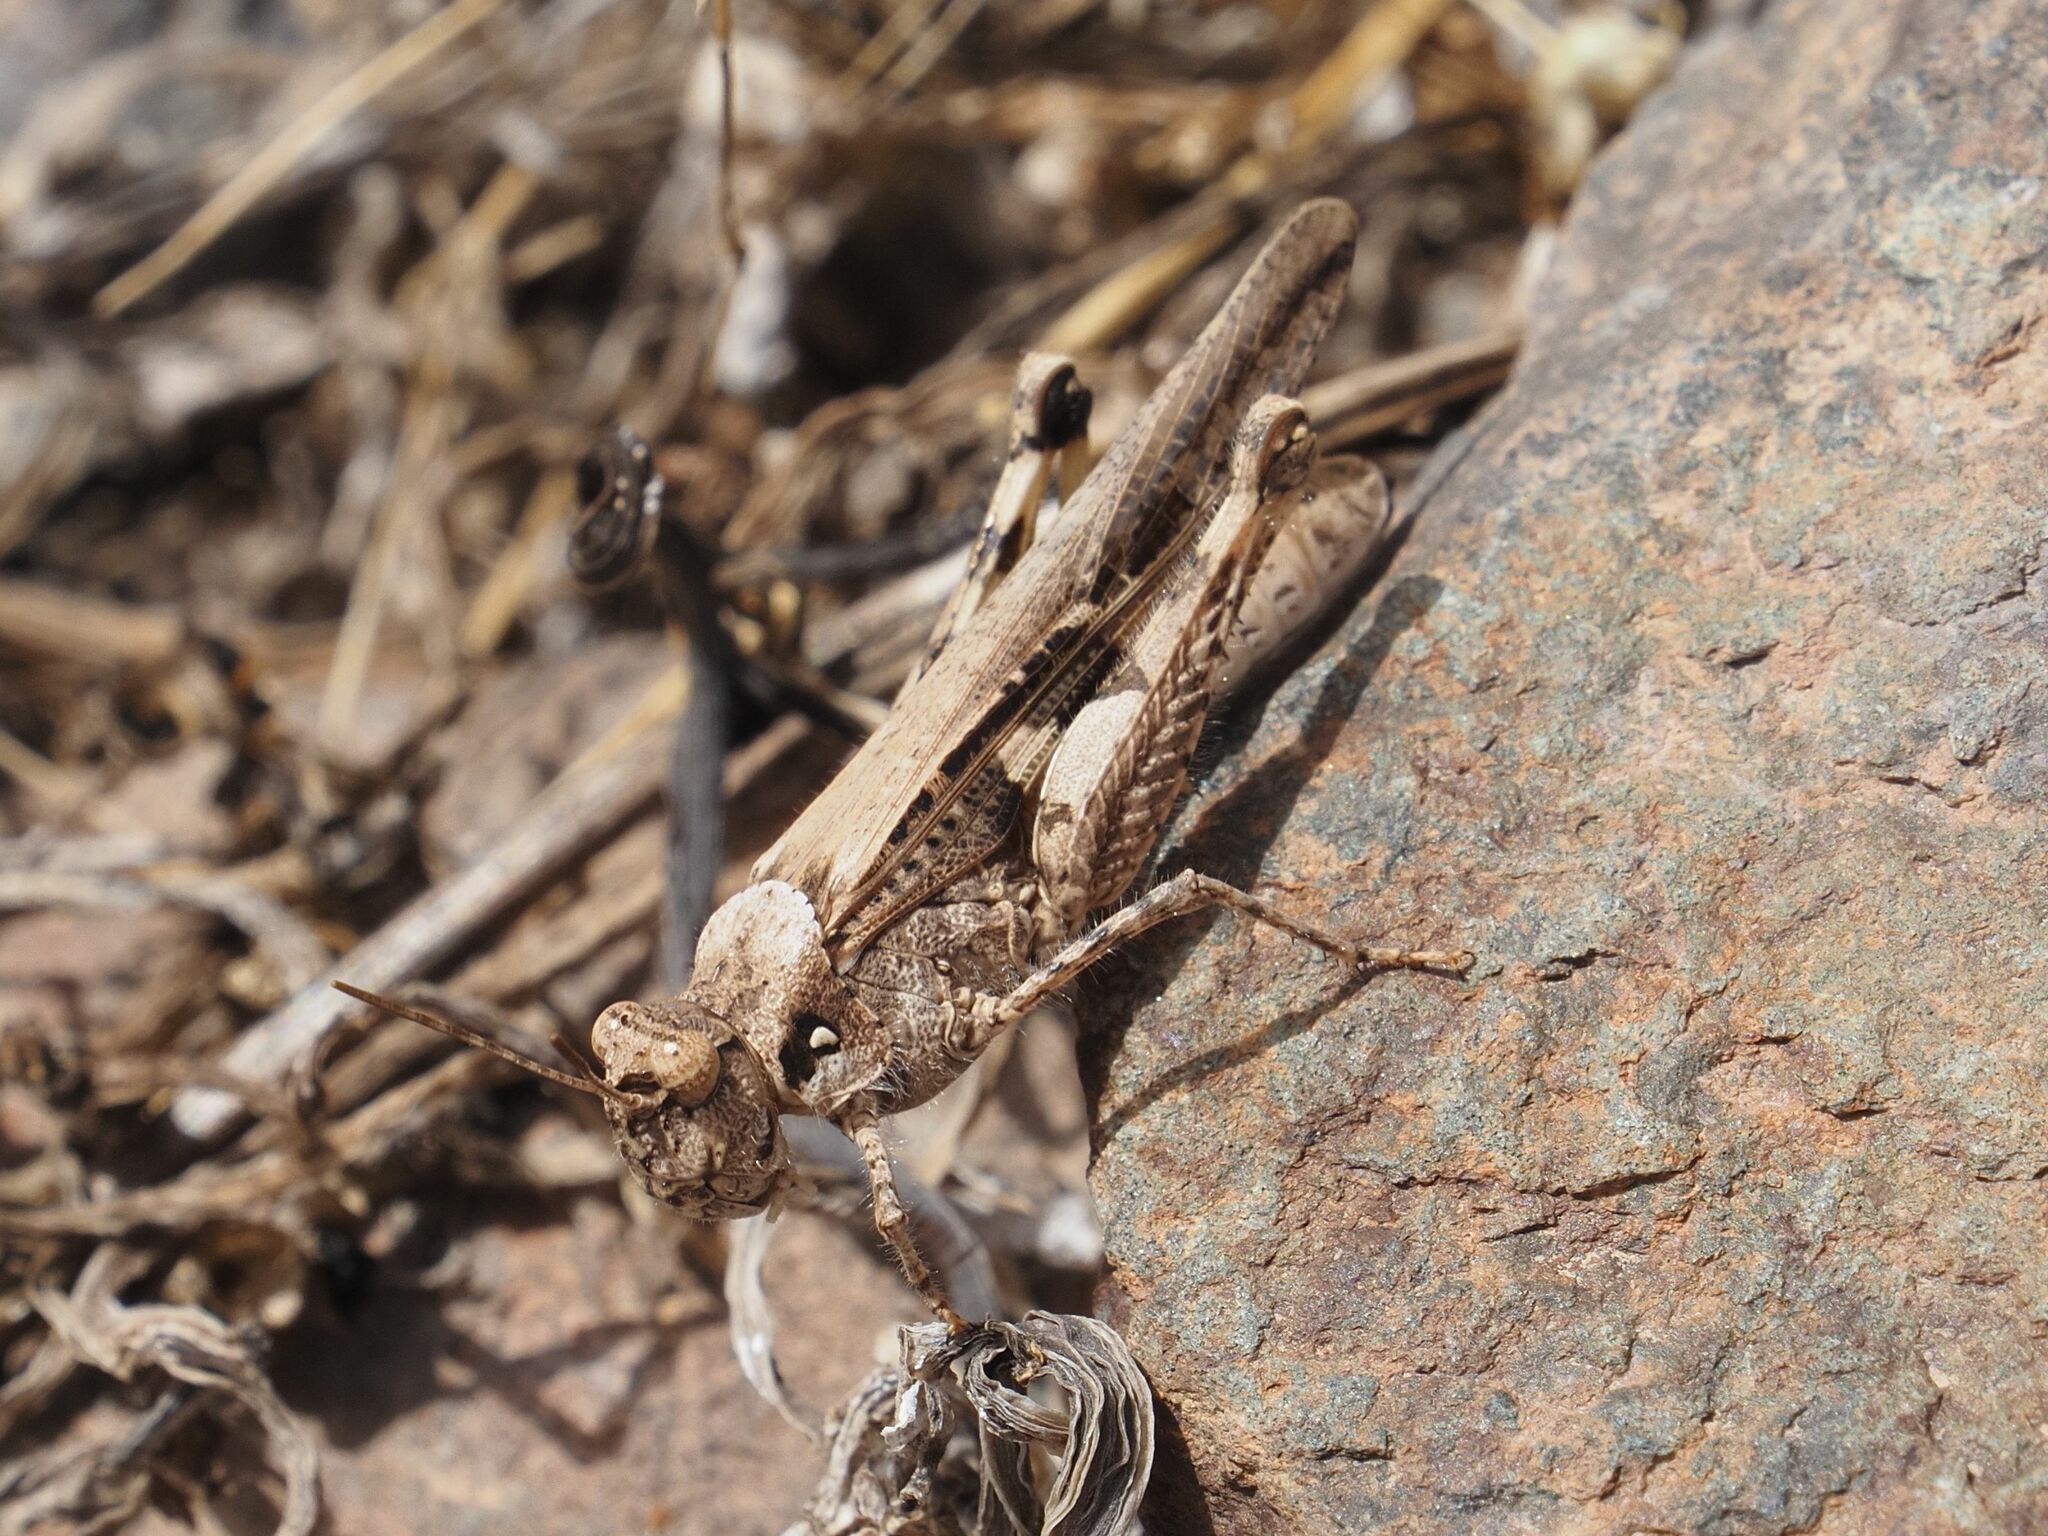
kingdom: Animalia
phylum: Arthropoda
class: Insecta
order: Orthoptera
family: Acrididae
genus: Acrotylus
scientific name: Acrotylus insubricus
